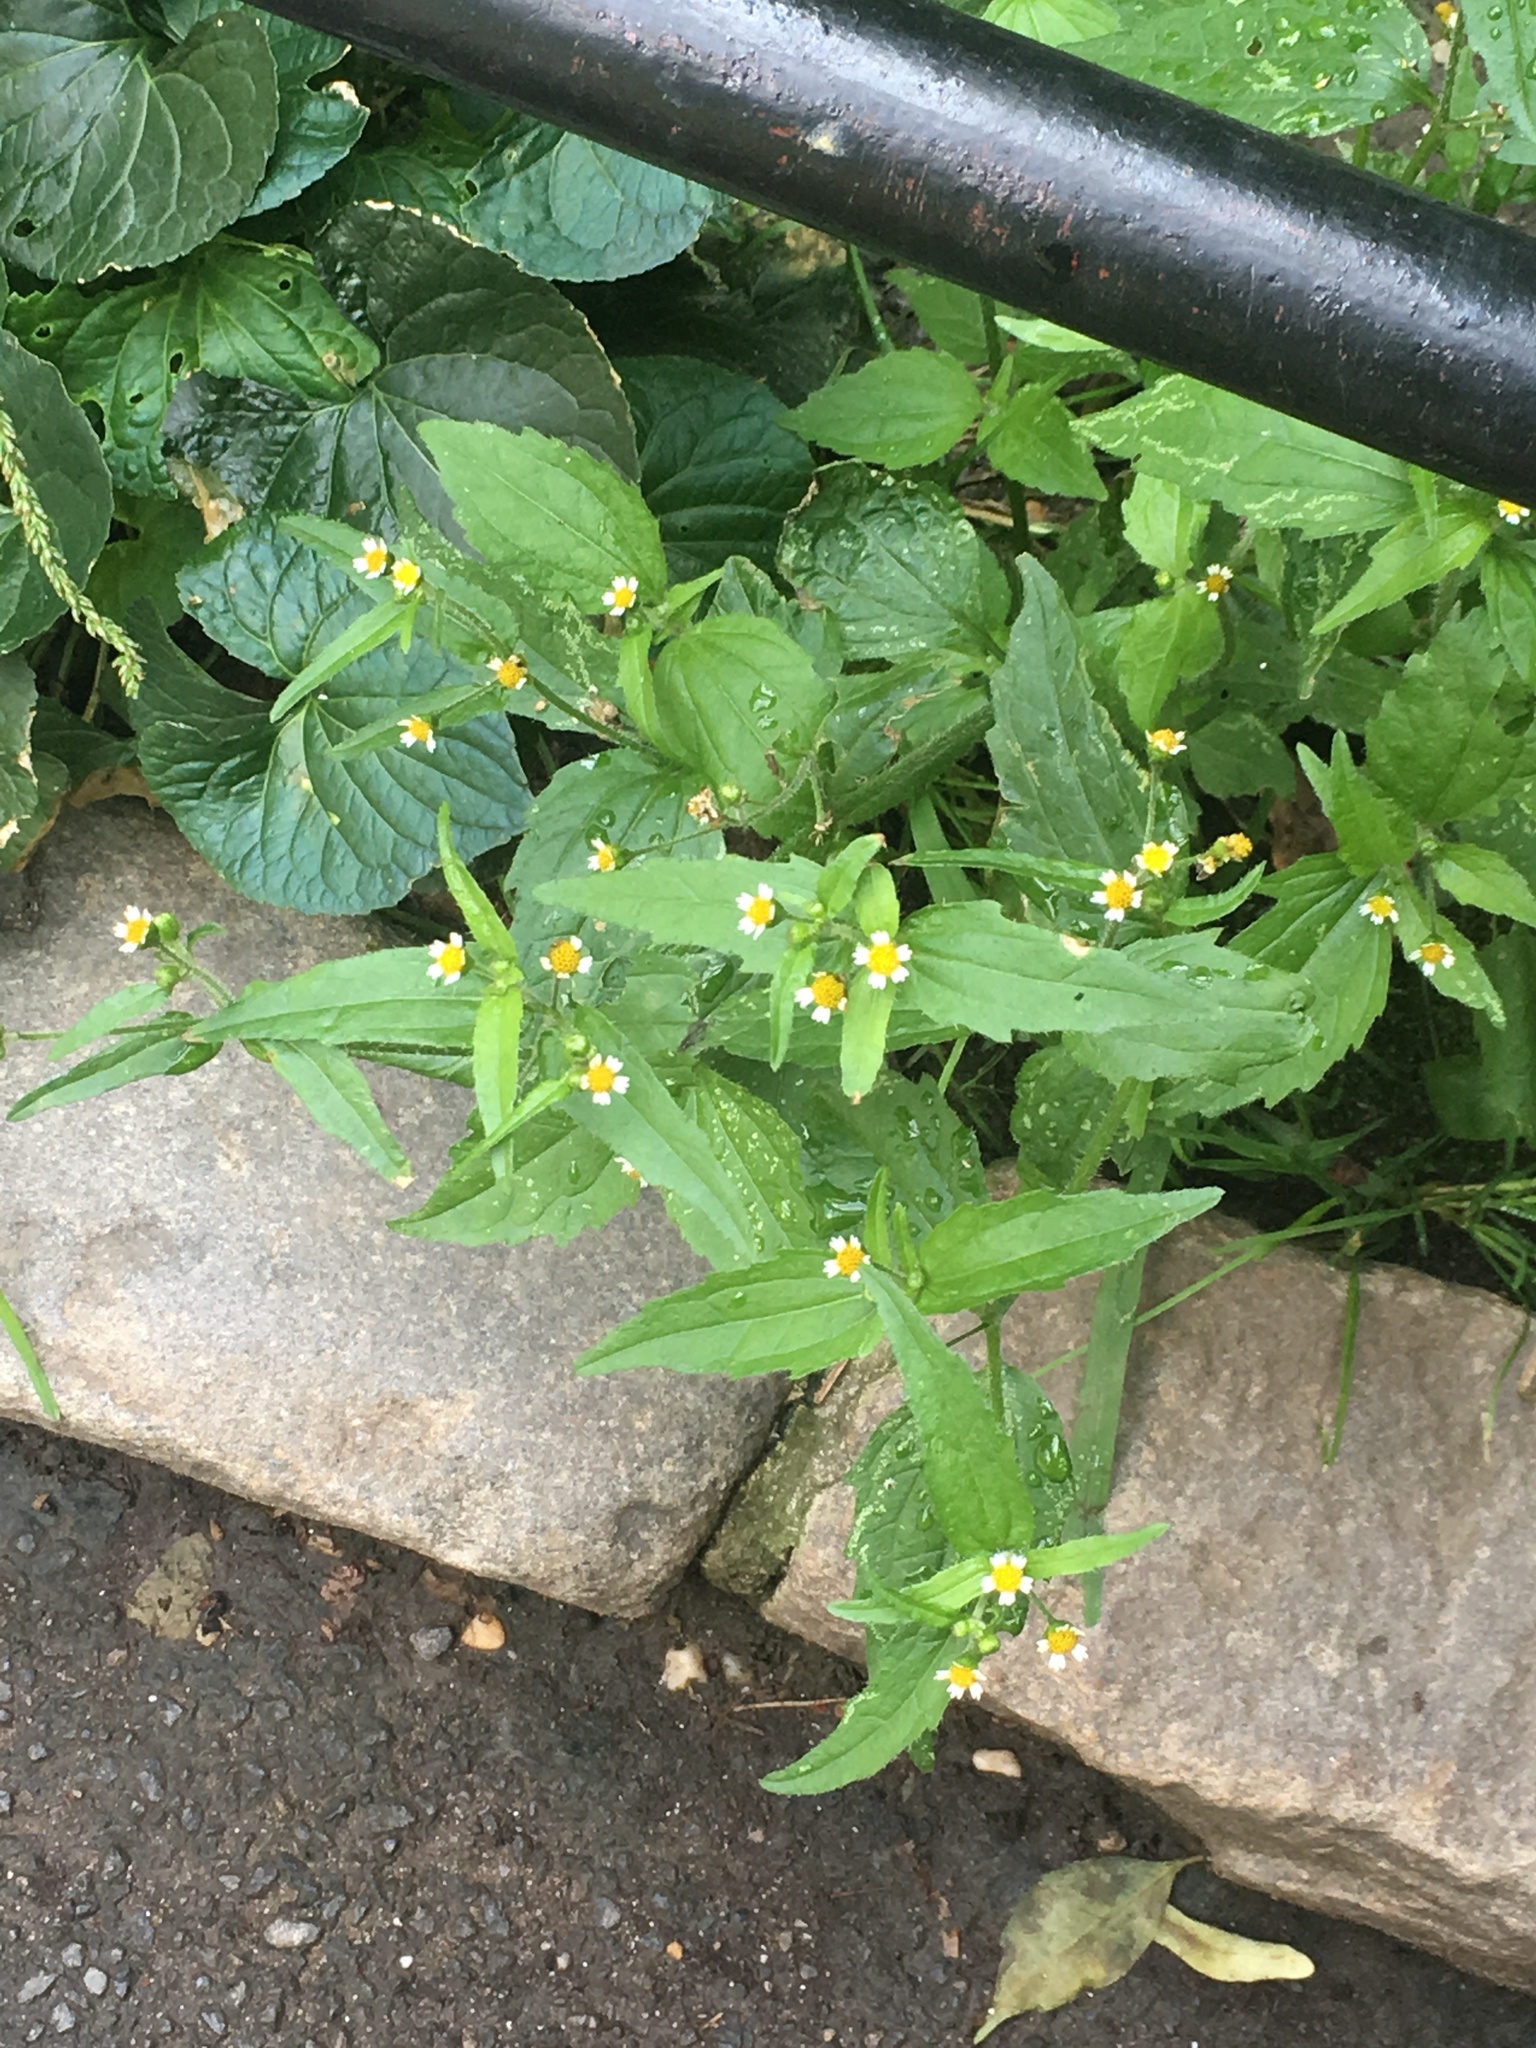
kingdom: Plantae
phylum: Tracheophyta
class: Magnoliopsida
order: Asterales
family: Asteraceae
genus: Galinsoga
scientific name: Galinsoga quadriradiata
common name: Shaggy soldier
